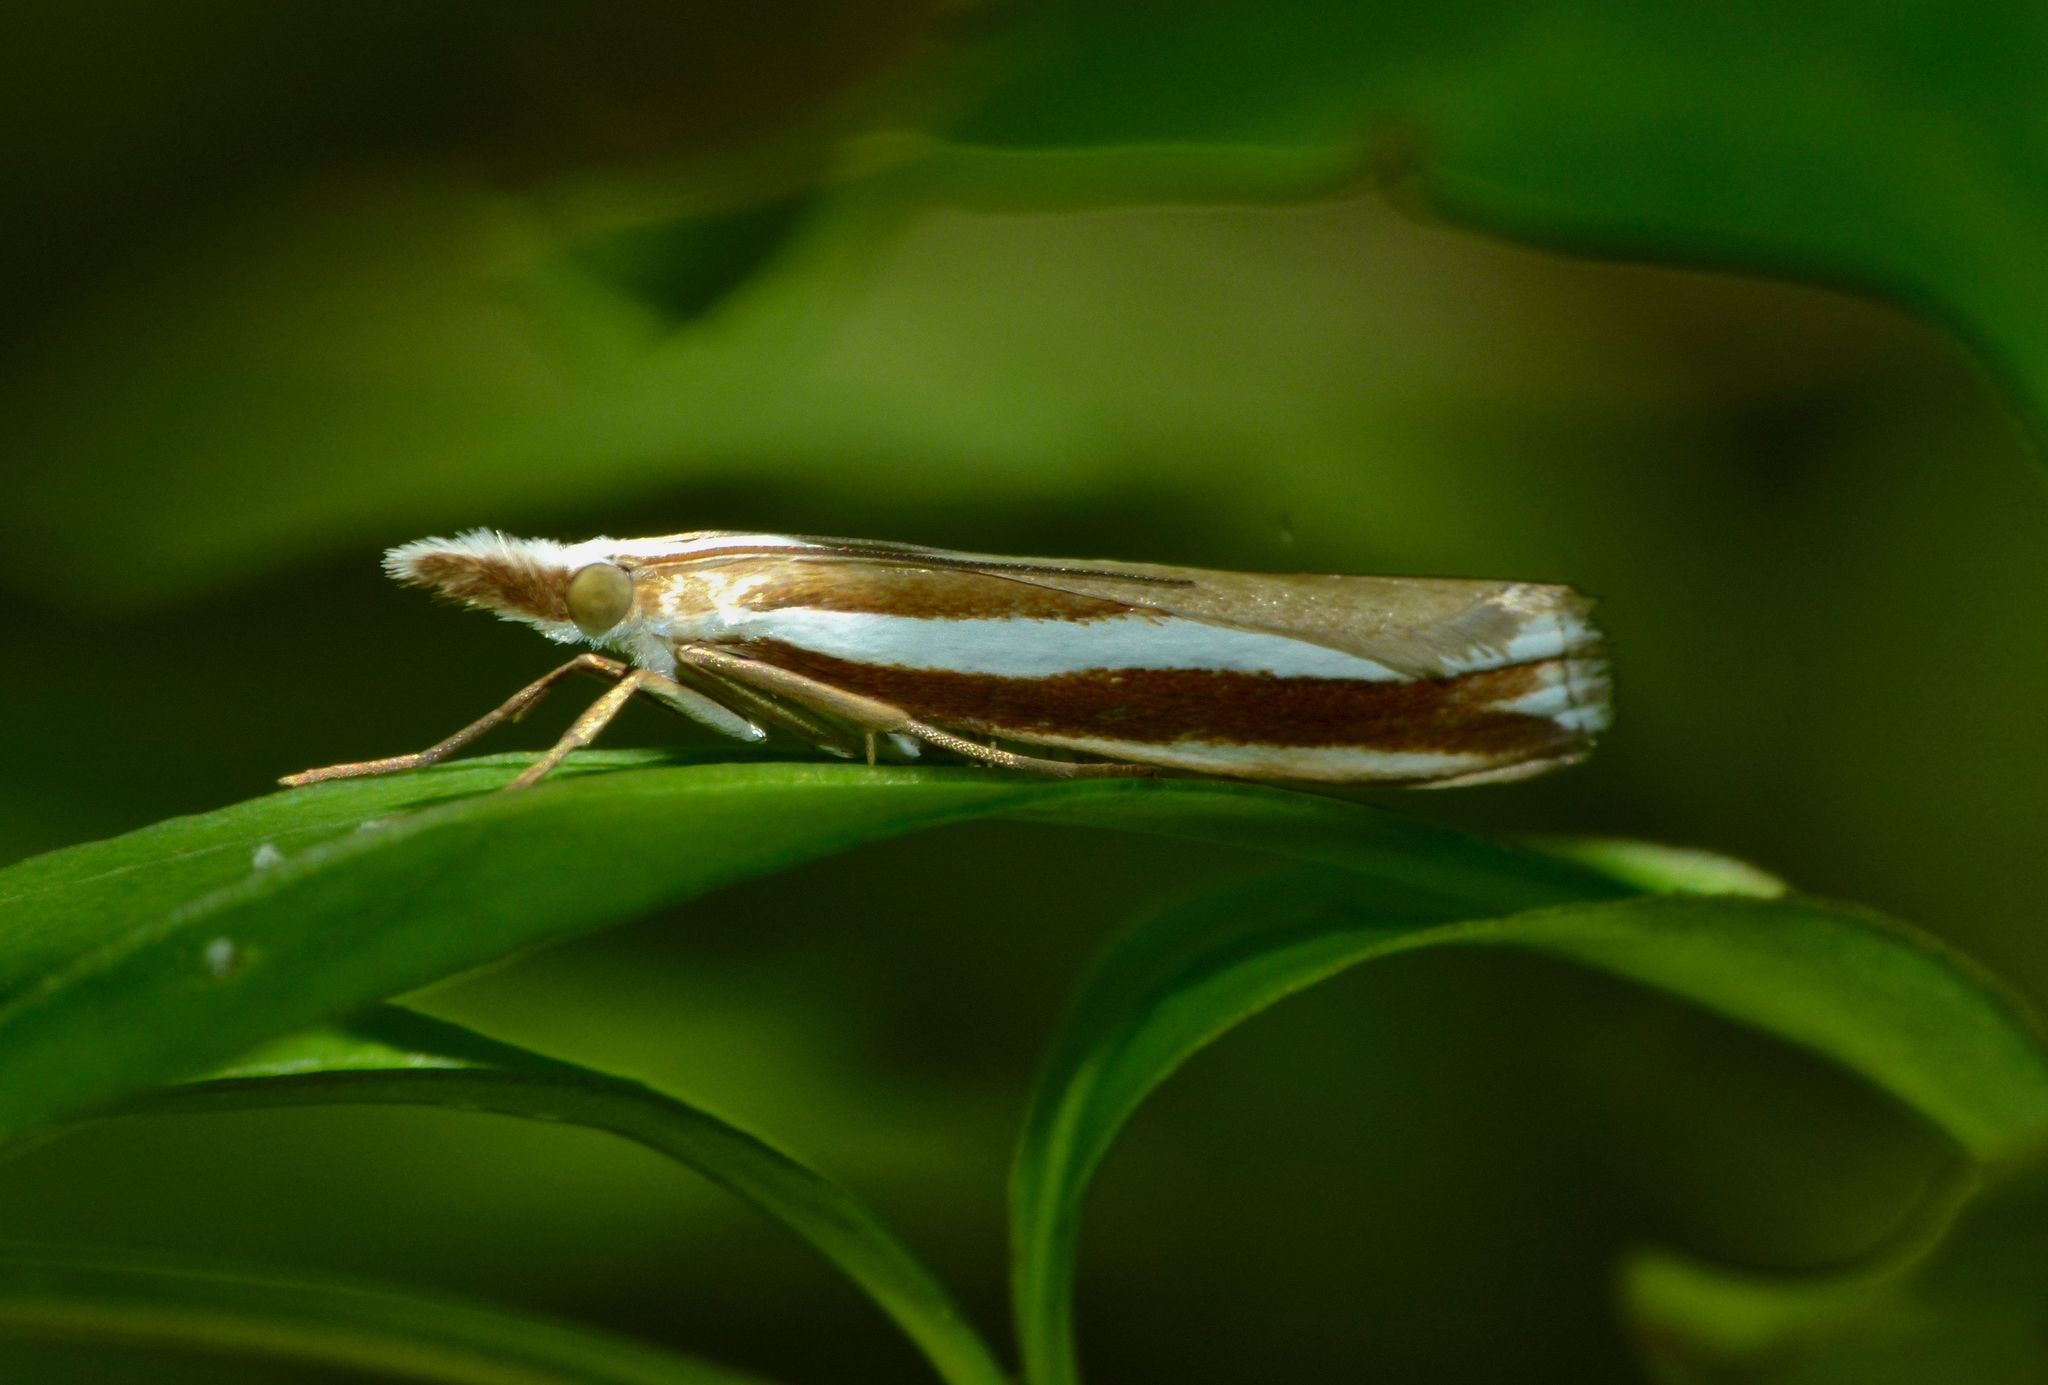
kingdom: Animalia
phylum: Arthropoda
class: Insecta
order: Lepidoptera
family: Crambidae
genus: Orocrambus
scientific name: Orocrambus apicellus
